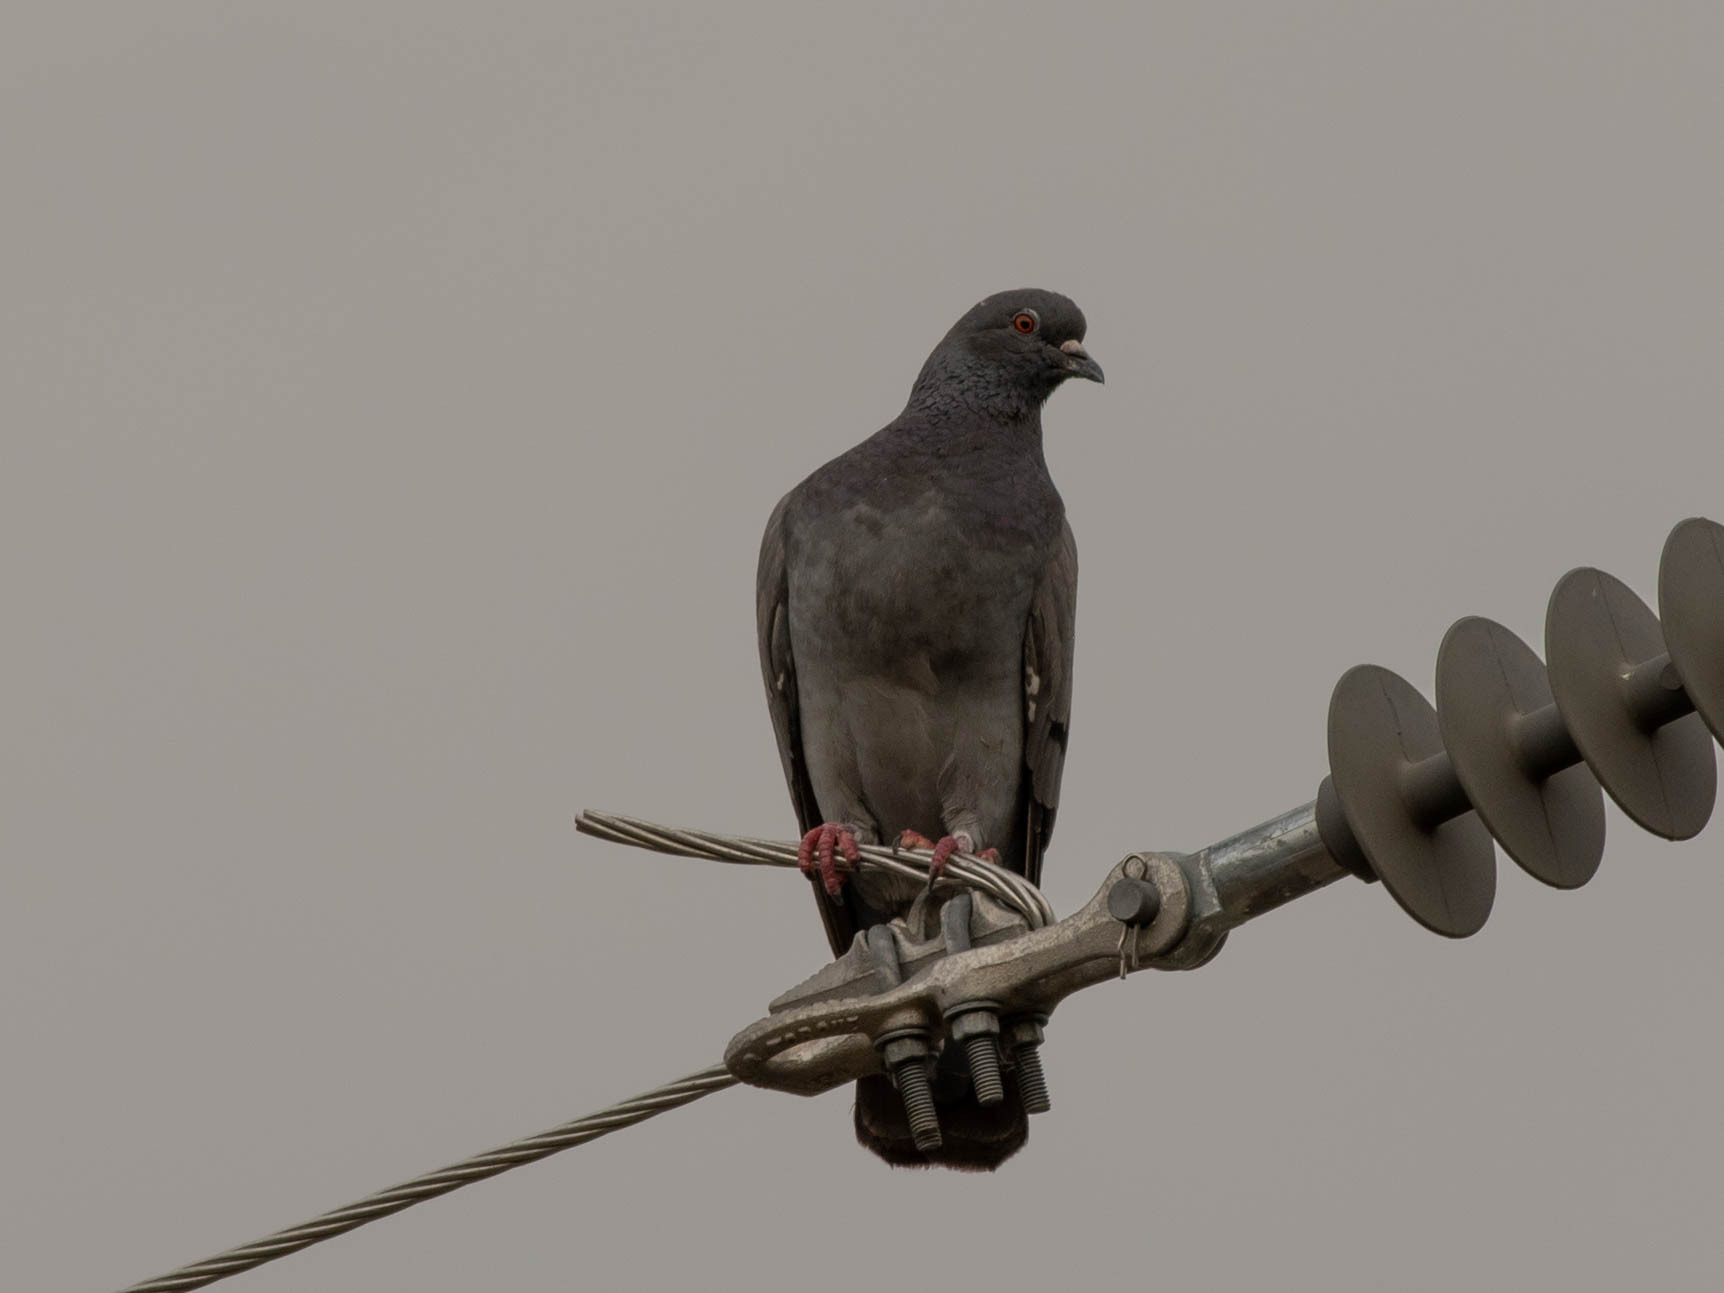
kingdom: Animalia
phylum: Chordata
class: Aves
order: Columbiformes
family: Columbidae
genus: Columba
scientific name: Columba livia
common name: Rock pigeon
